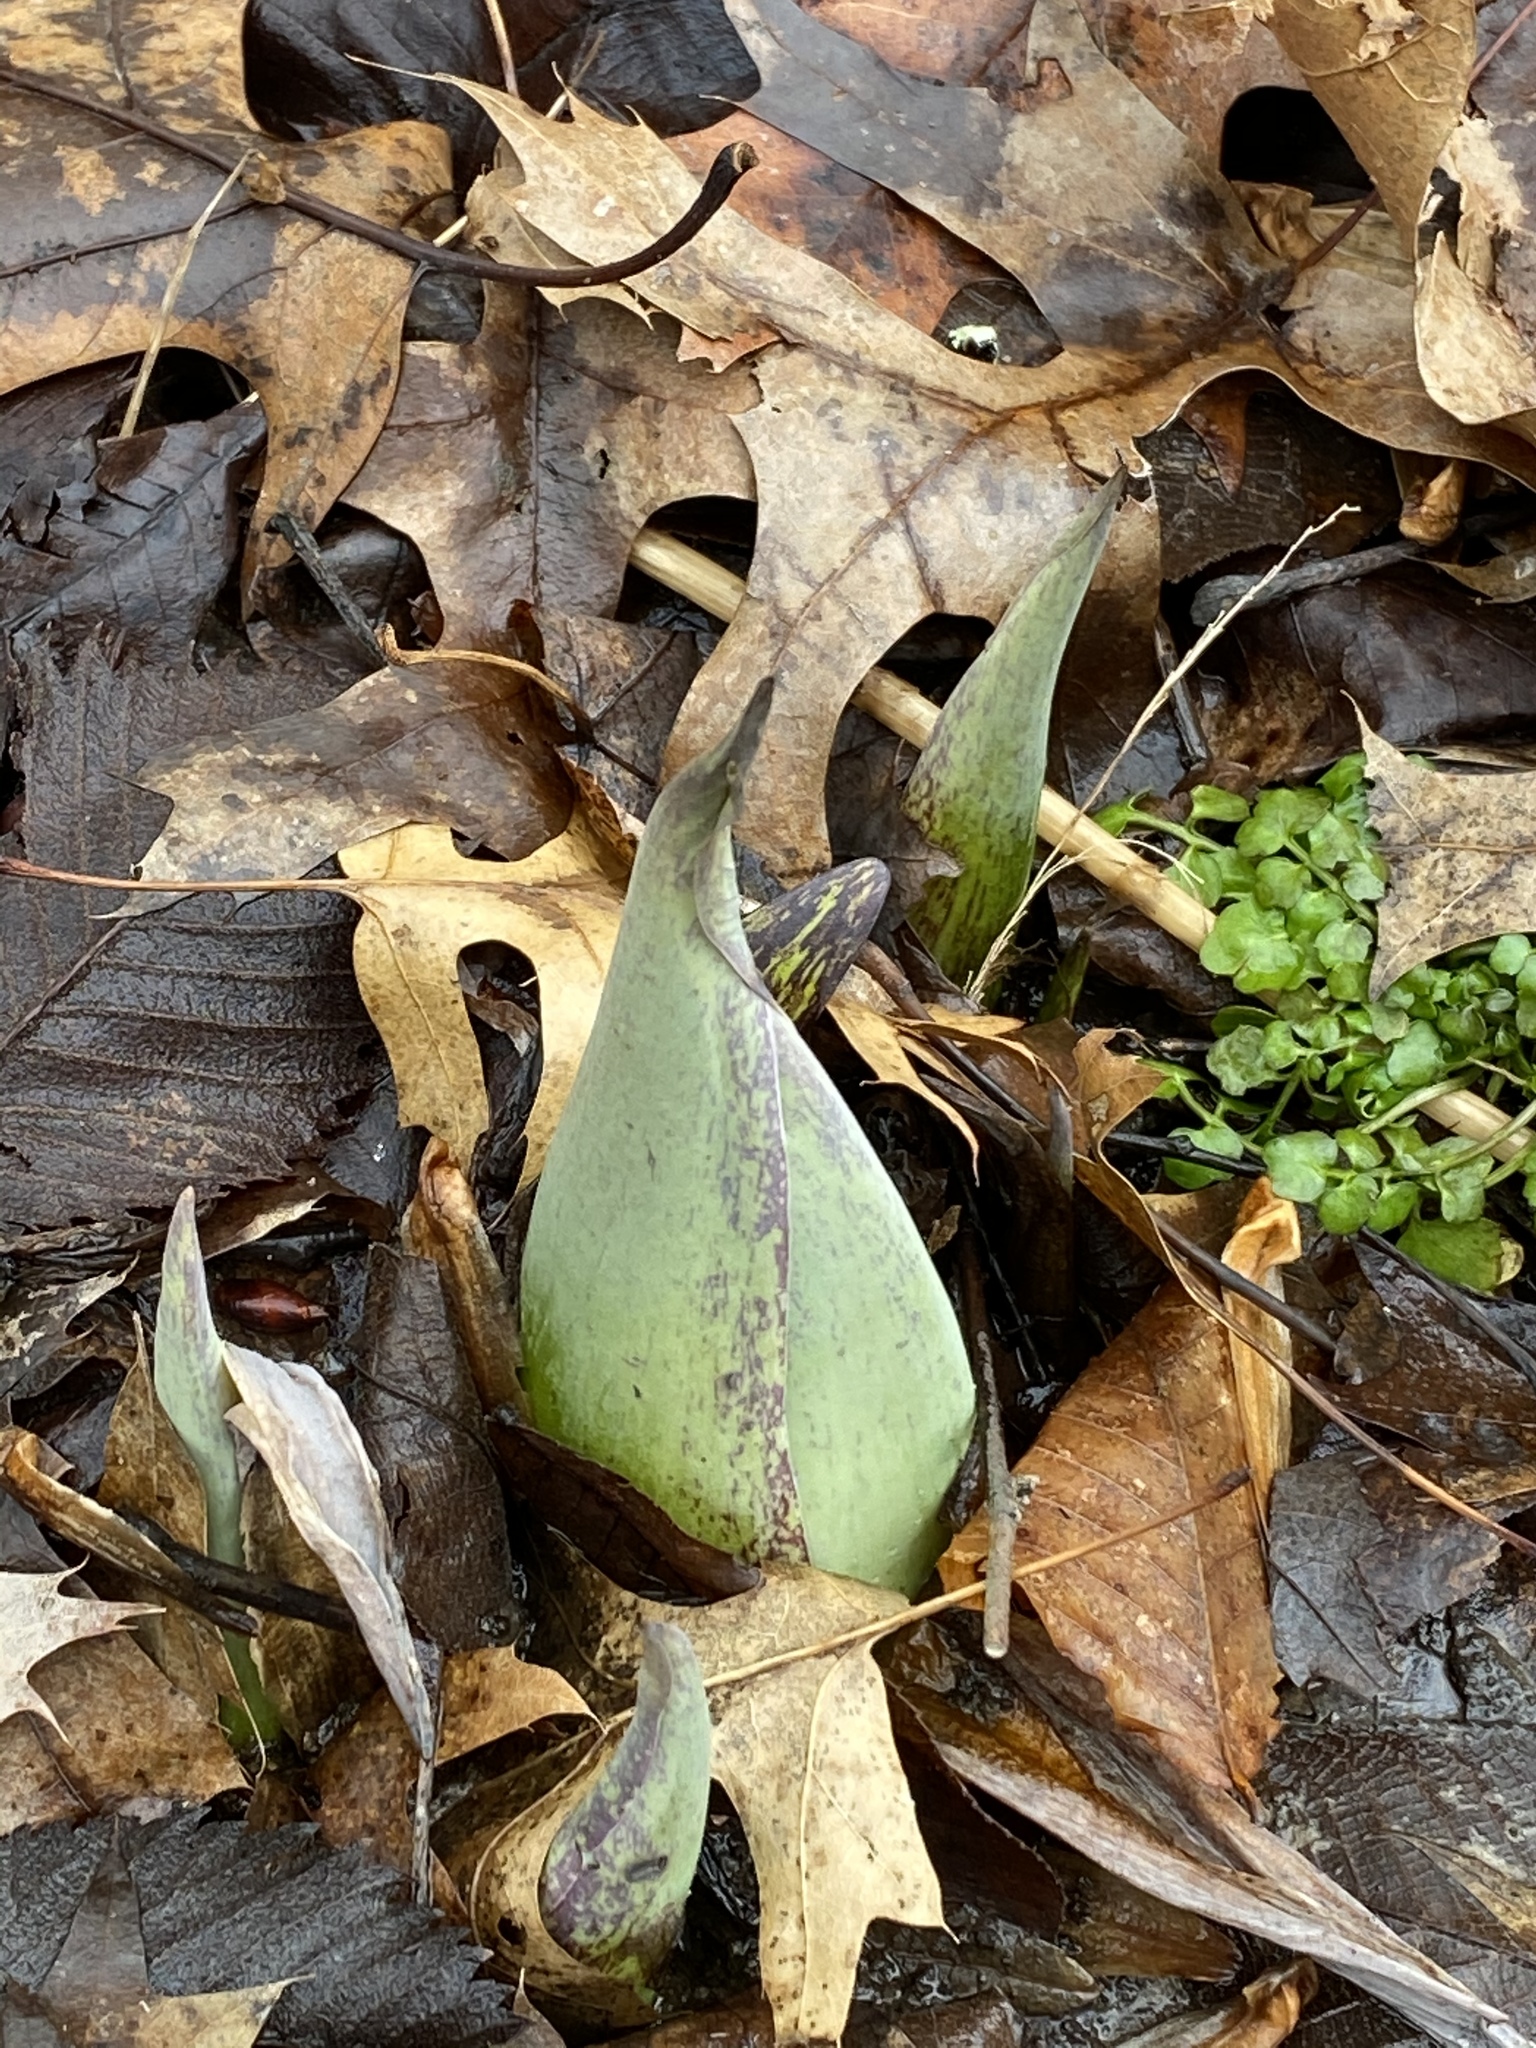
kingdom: Plantae
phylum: Tracheophyta
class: Liliopsida
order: Alismatales
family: Araceae
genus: Symplocarpus
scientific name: Symplocarpus foetidus
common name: Eastern skunk cabbage
